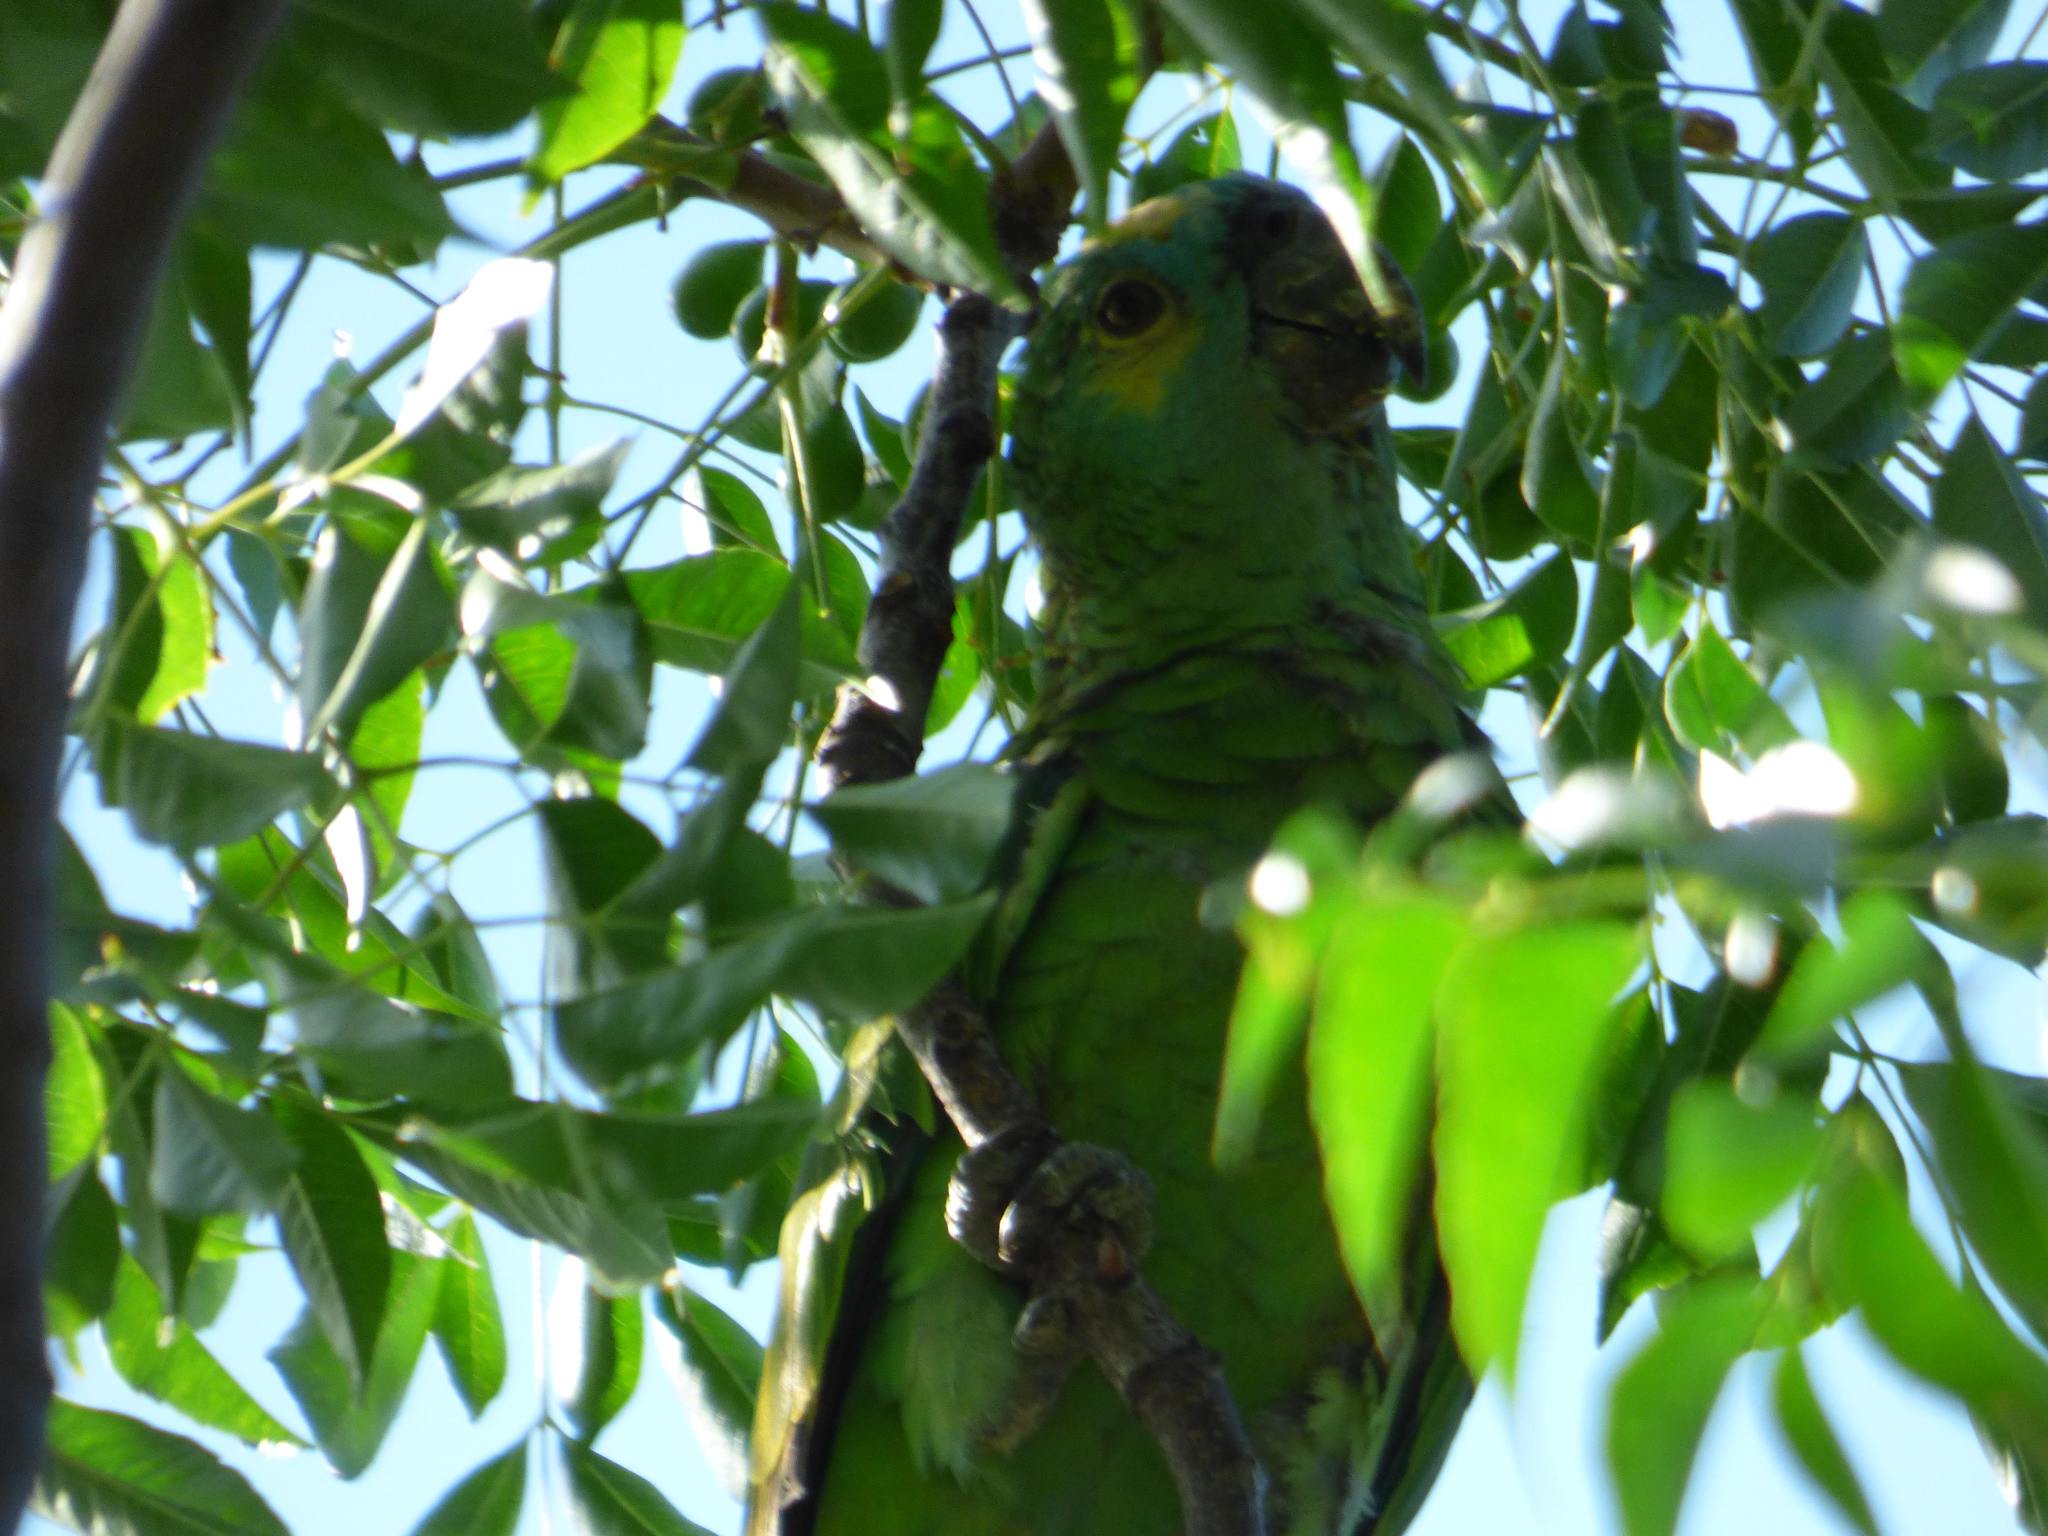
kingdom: Animalia
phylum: Chordata
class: Aves
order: Psittaciformes
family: Psittacidae
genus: Amazona
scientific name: Amazona aestiva
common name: Turquoise-fronted amazon
